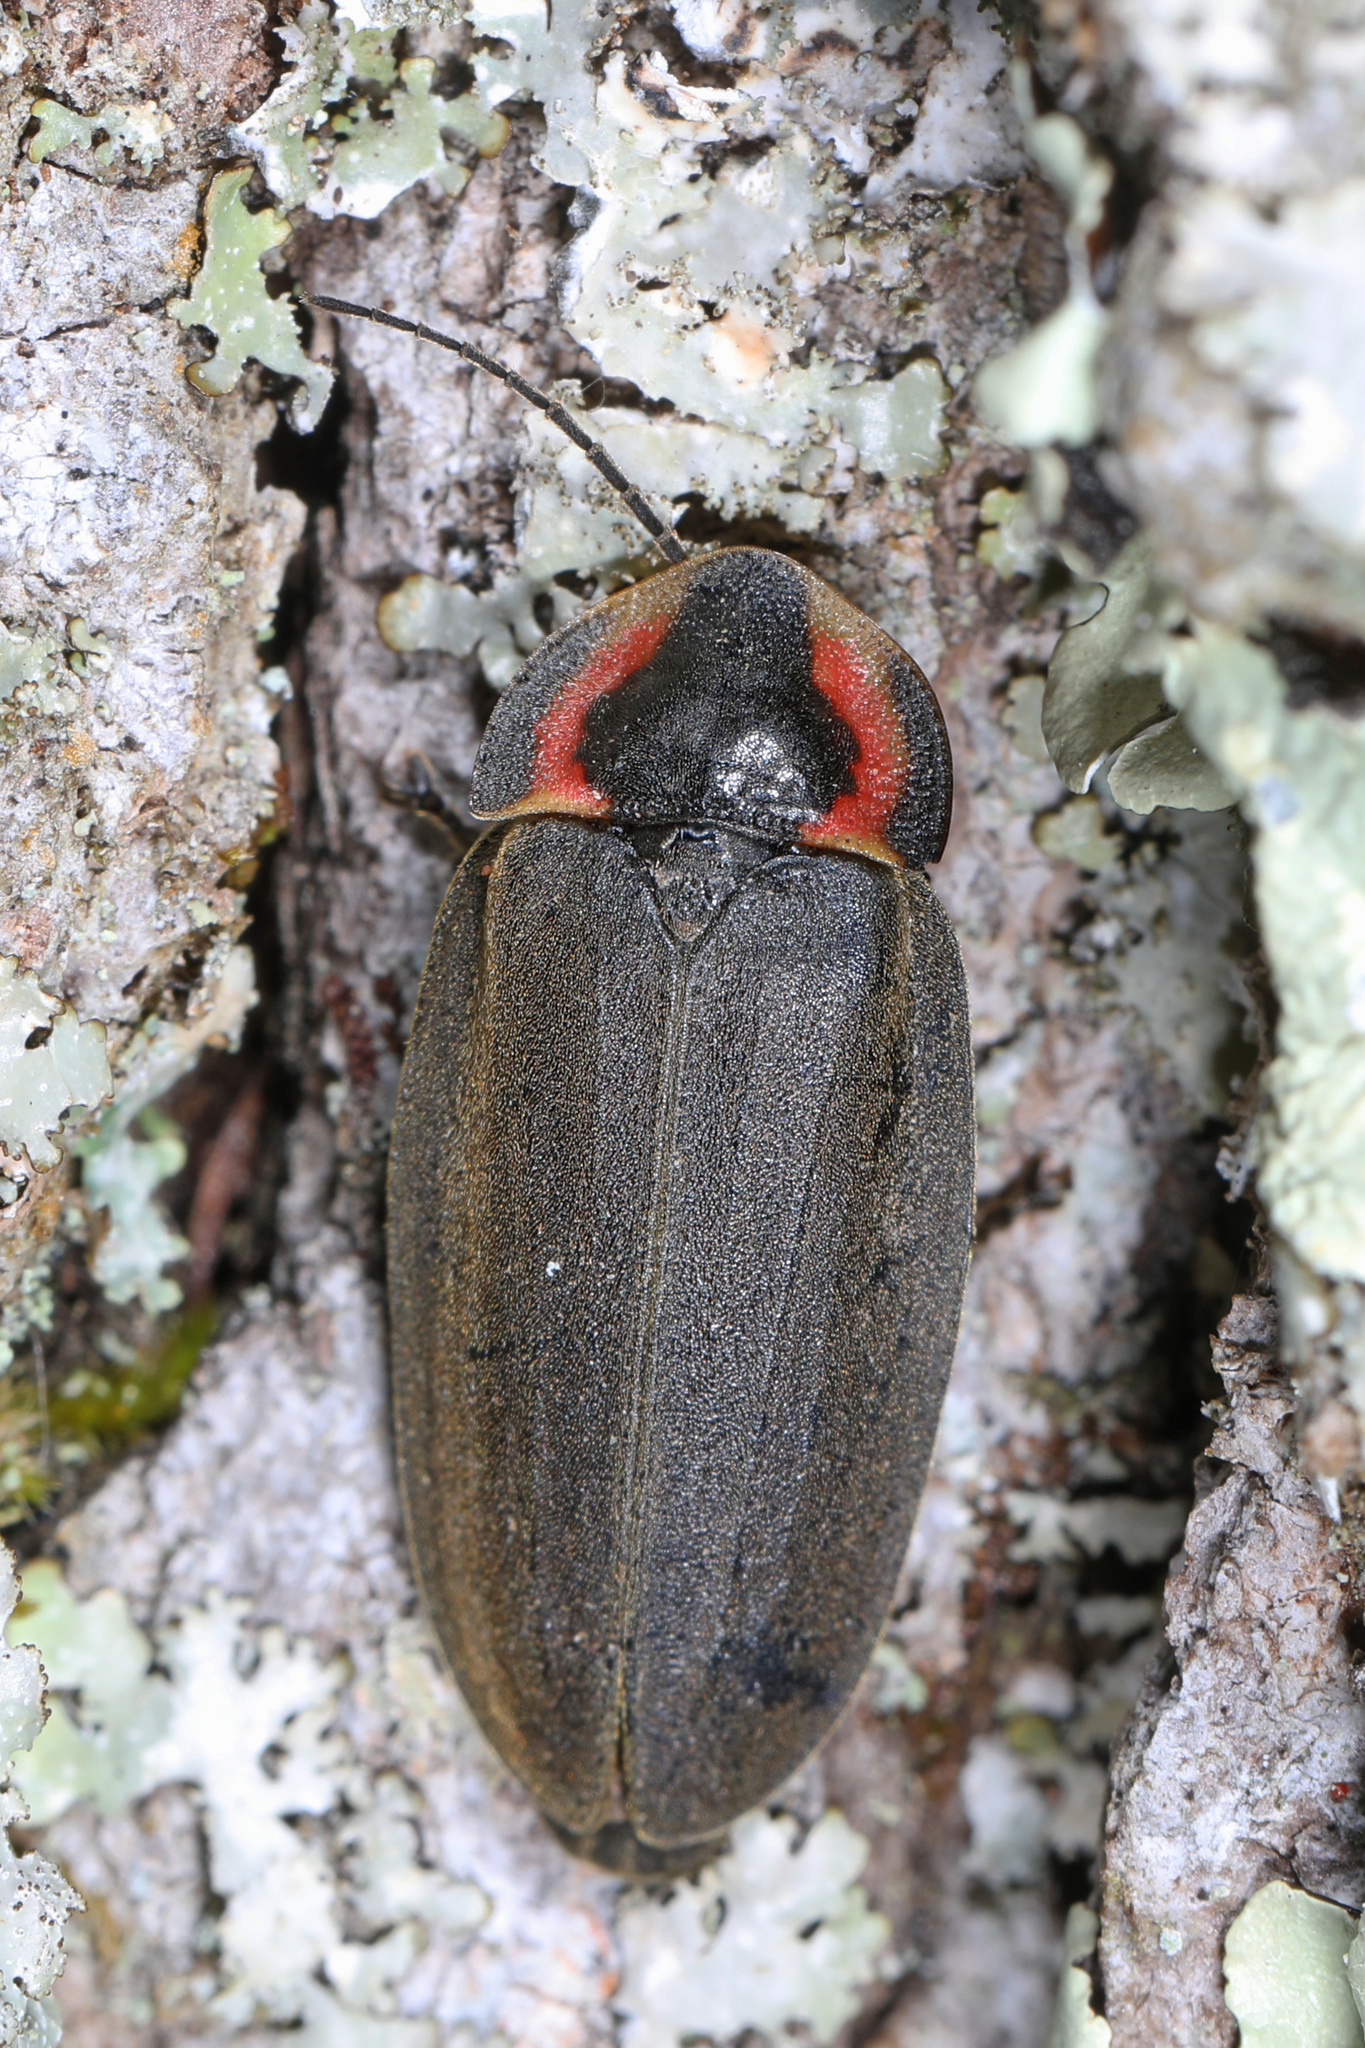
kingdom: Animalia
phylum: Arthropoda
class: Insecta
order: Coleoptera
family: Lampyridae
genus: Photinus
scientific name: Photinus corrusca
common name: Winter firefly
